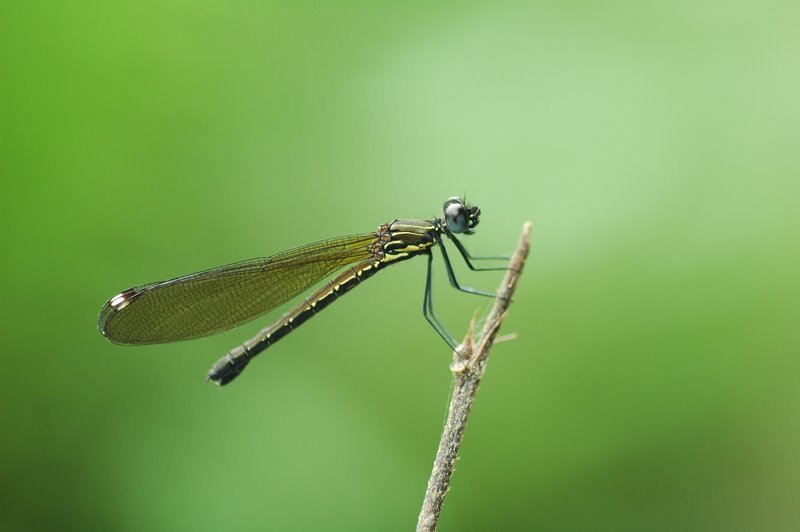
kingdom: Animalia
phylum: Arthropoda
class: Insecta
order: Odonata
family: Chlorocyphidae
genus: Aristocypha
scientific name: Aristocypha trifasciata
